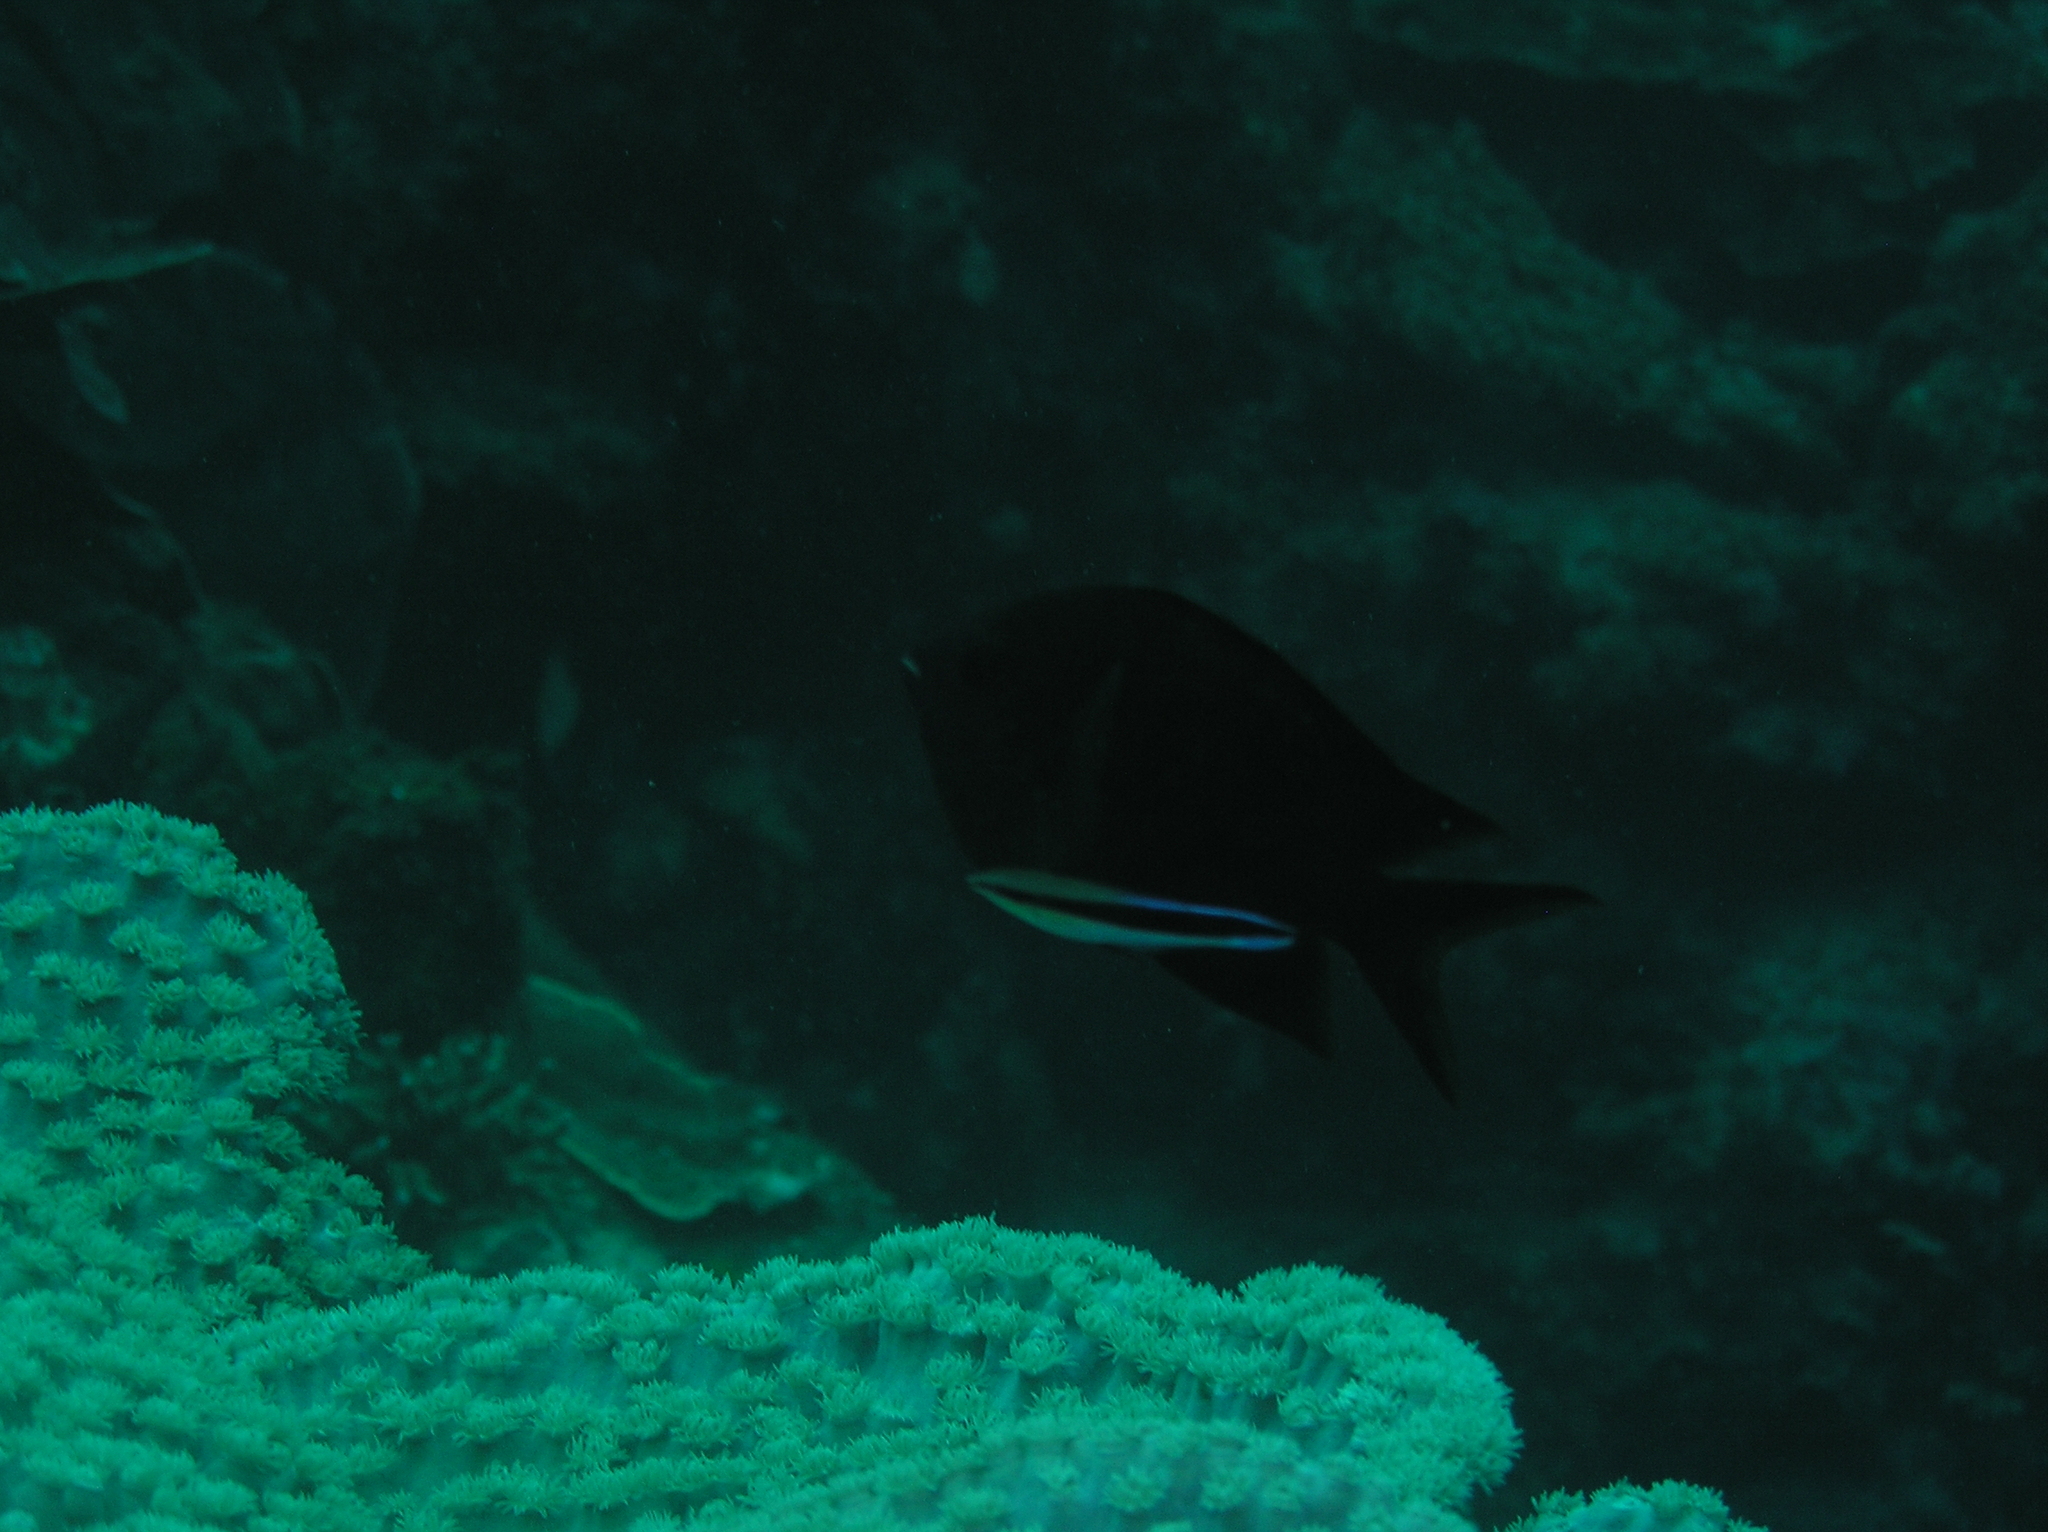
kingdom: Animalia
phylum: Chordata
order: Perciformes
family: Pomacentridae
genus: Acanthochromis
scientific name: Acanthochromis polyacanthus
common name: Spiny chromis
